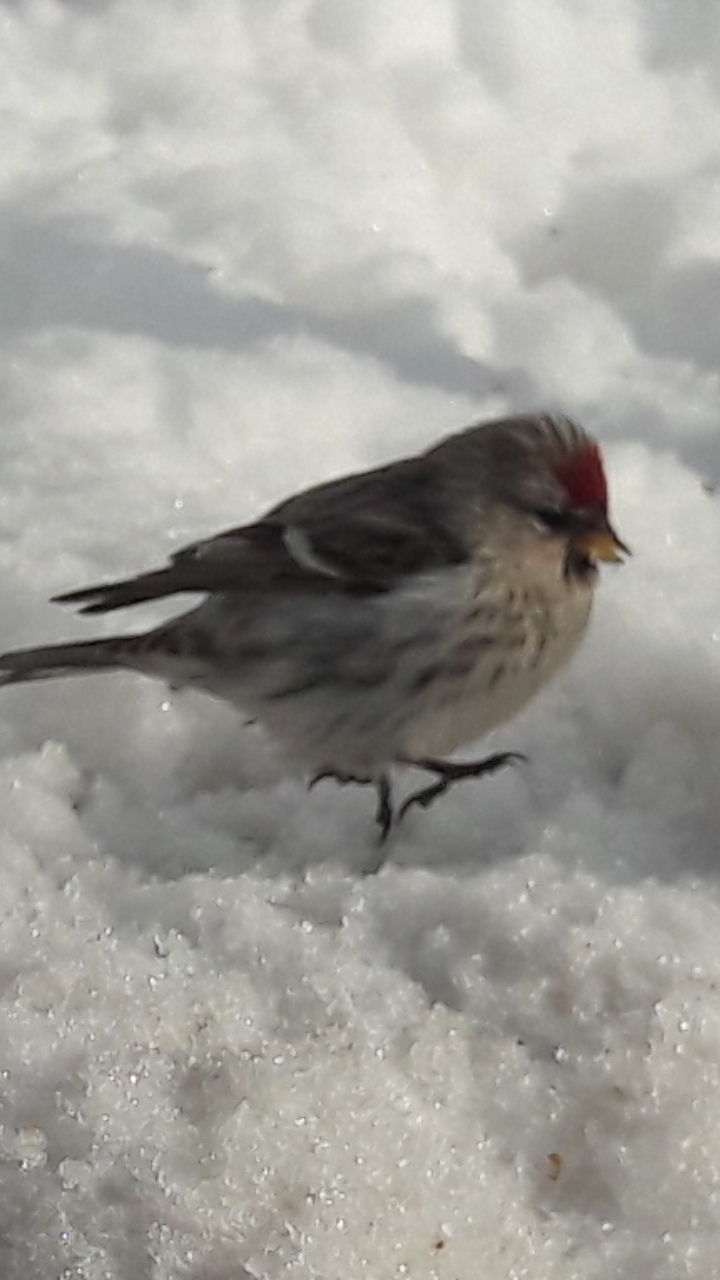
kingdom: Animalia
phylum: Chordata
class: Aves
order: Passeriformes
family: Fringillidae
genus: Acanthis
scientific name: Acanthis flammea
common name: Common redpoll
